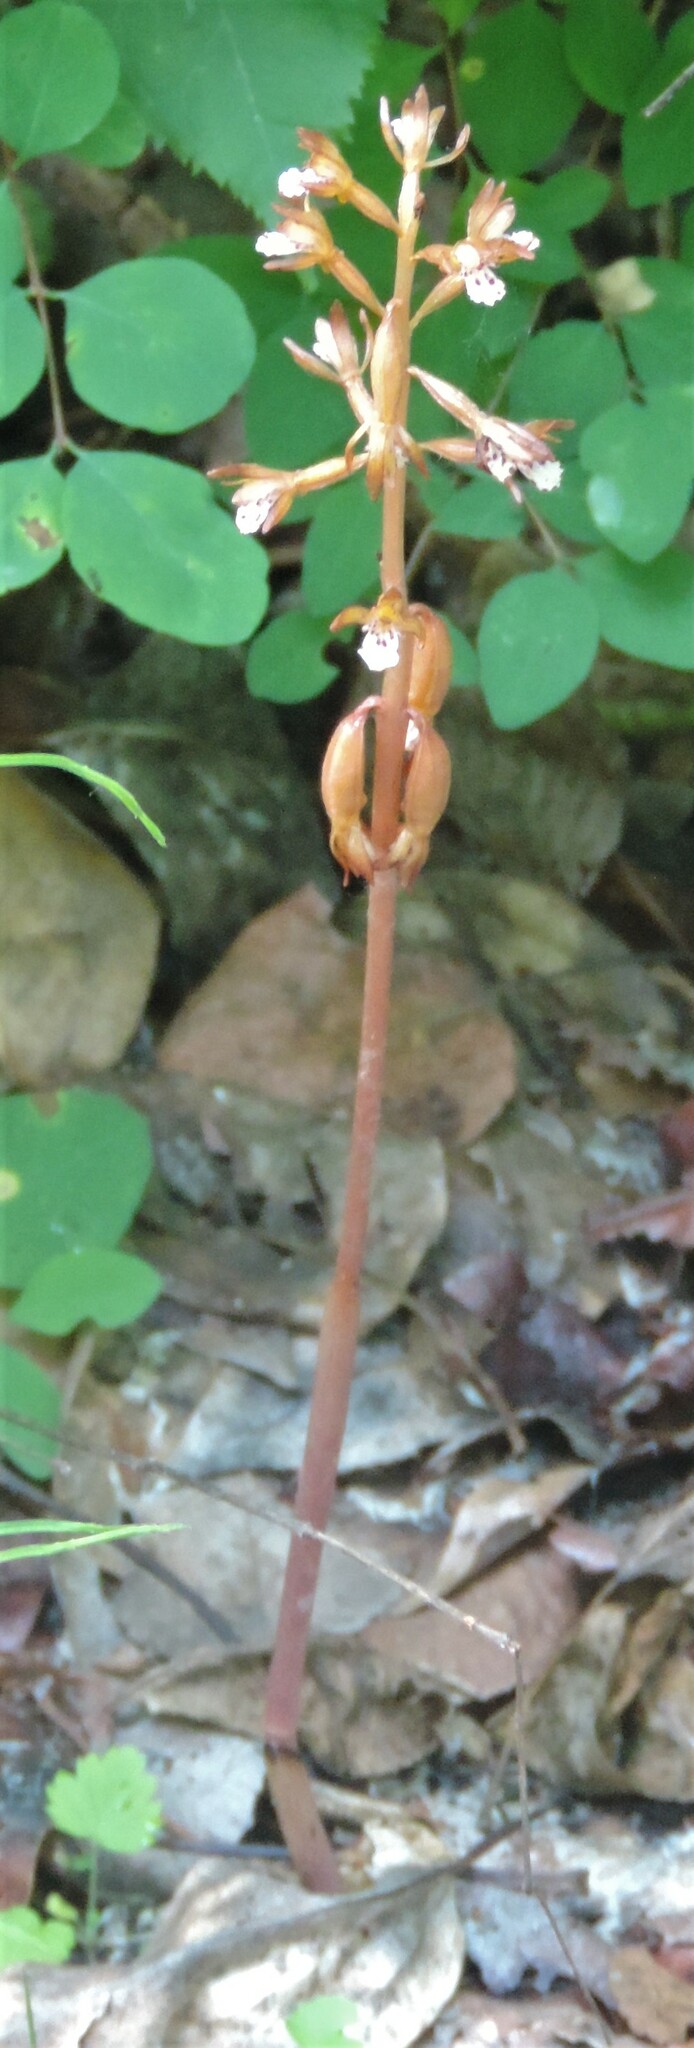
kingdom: Plantae
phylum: Tracheophyta
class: Liliopsida
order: Asparagales
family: Orchidaceae
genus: Corallorhiza
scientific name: Corallorhiza maculata
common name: Spotted coralroot
